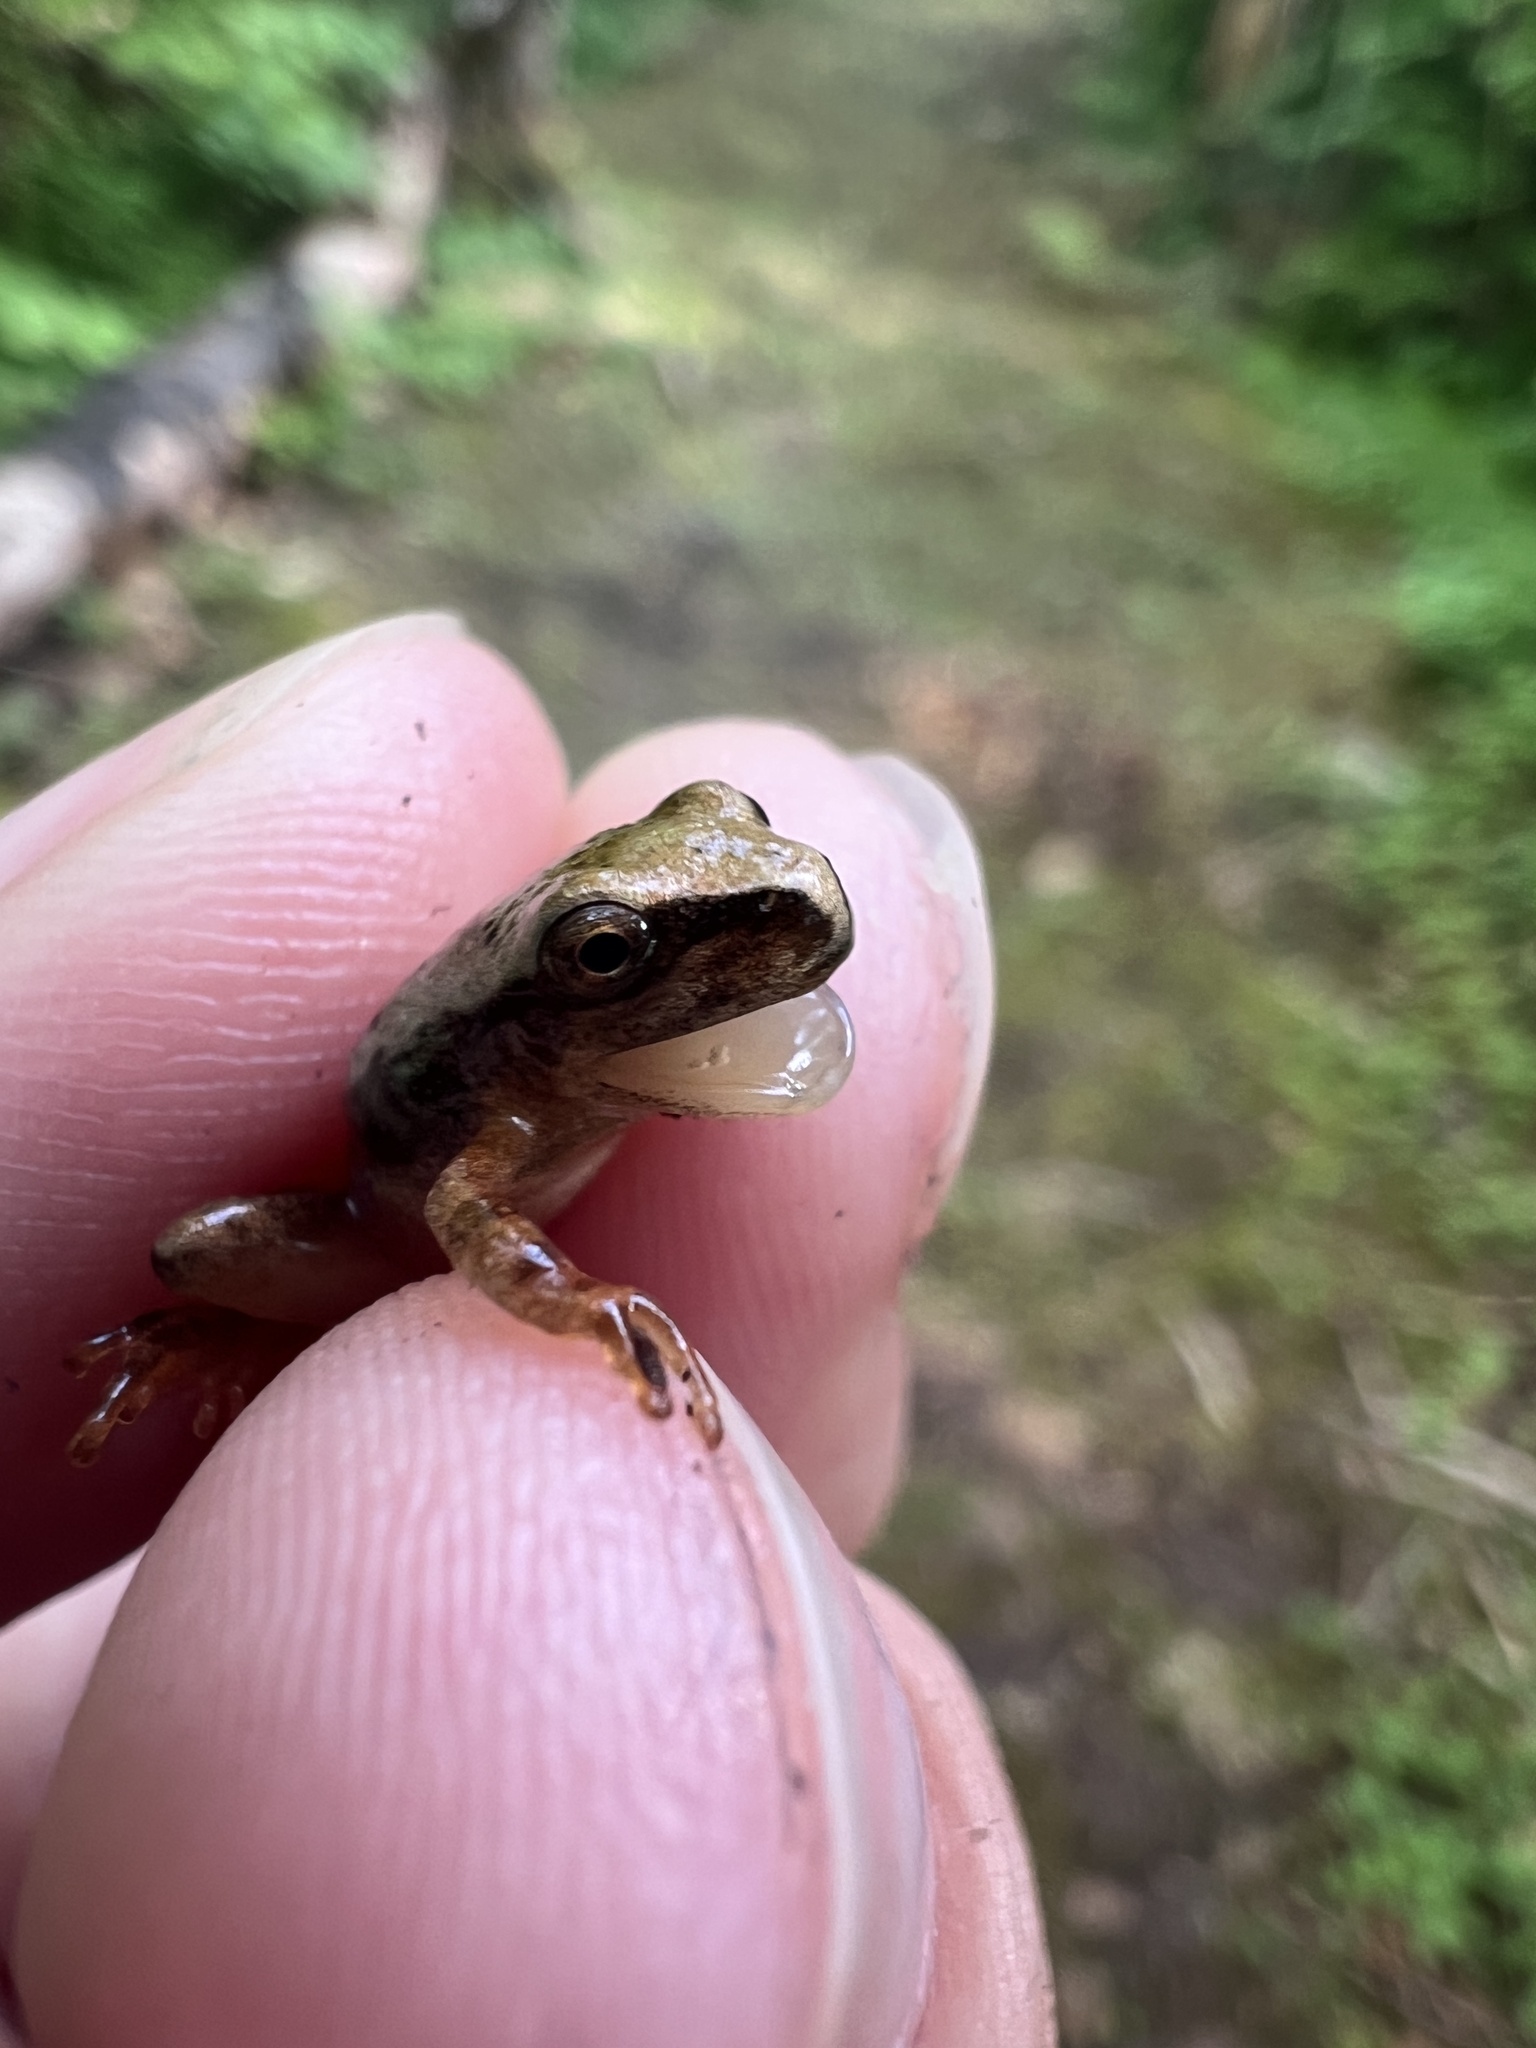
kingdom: Animalia
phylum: Chordata
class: Amphibia
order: Anura
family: Hylidae
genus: Pseudacris
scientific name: Pseudacris crucifer
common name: Spring peeper
